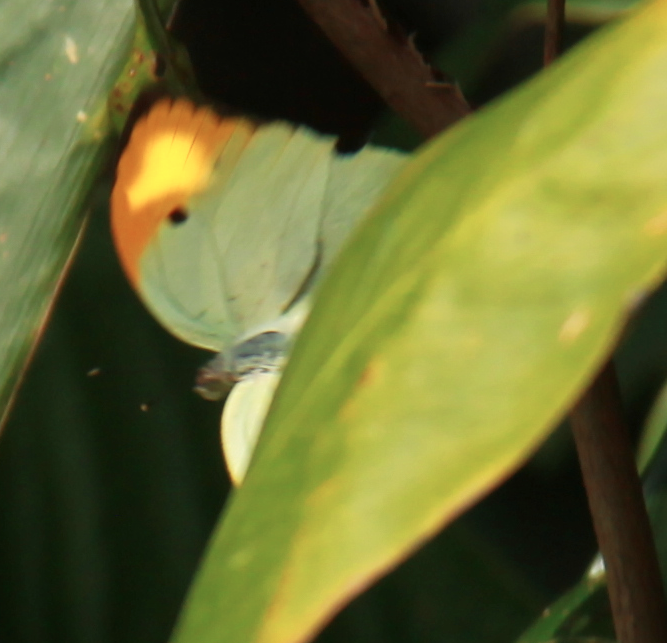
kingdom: Animalia
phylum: Arthropoda
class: Insecta
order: Lepidoptera
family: Pieridae
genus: Anteos
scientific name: Anteos menippe
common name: Orangetip angled-sulphur
